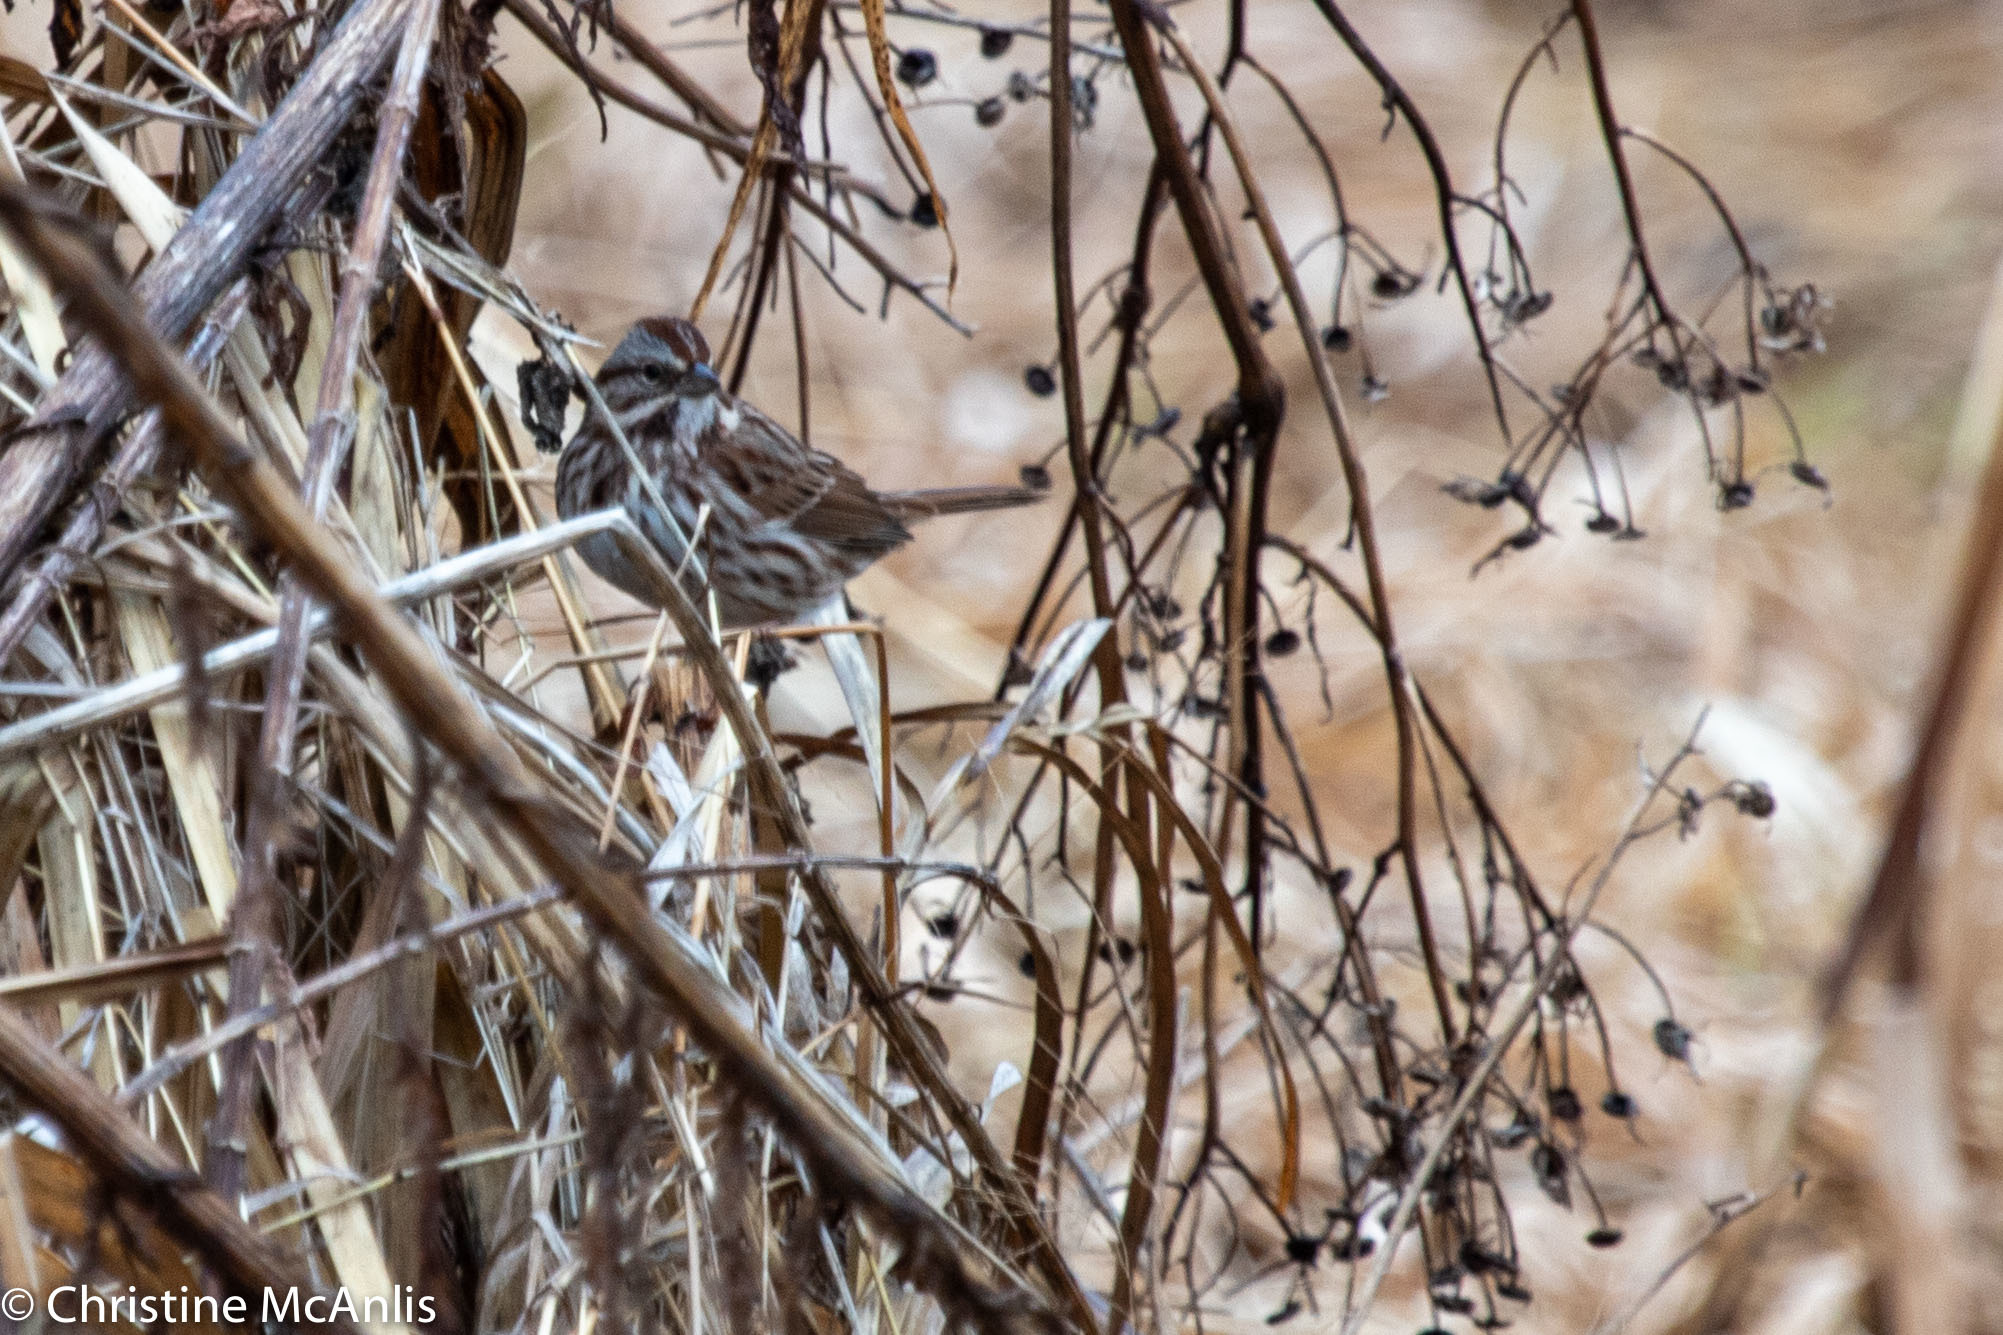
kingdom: Animalia
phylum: Chordata
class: Aves
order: Passeriformes
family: Passerellidae
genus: Melospiza
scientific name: Melospiza melodia
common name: Song sparrow
